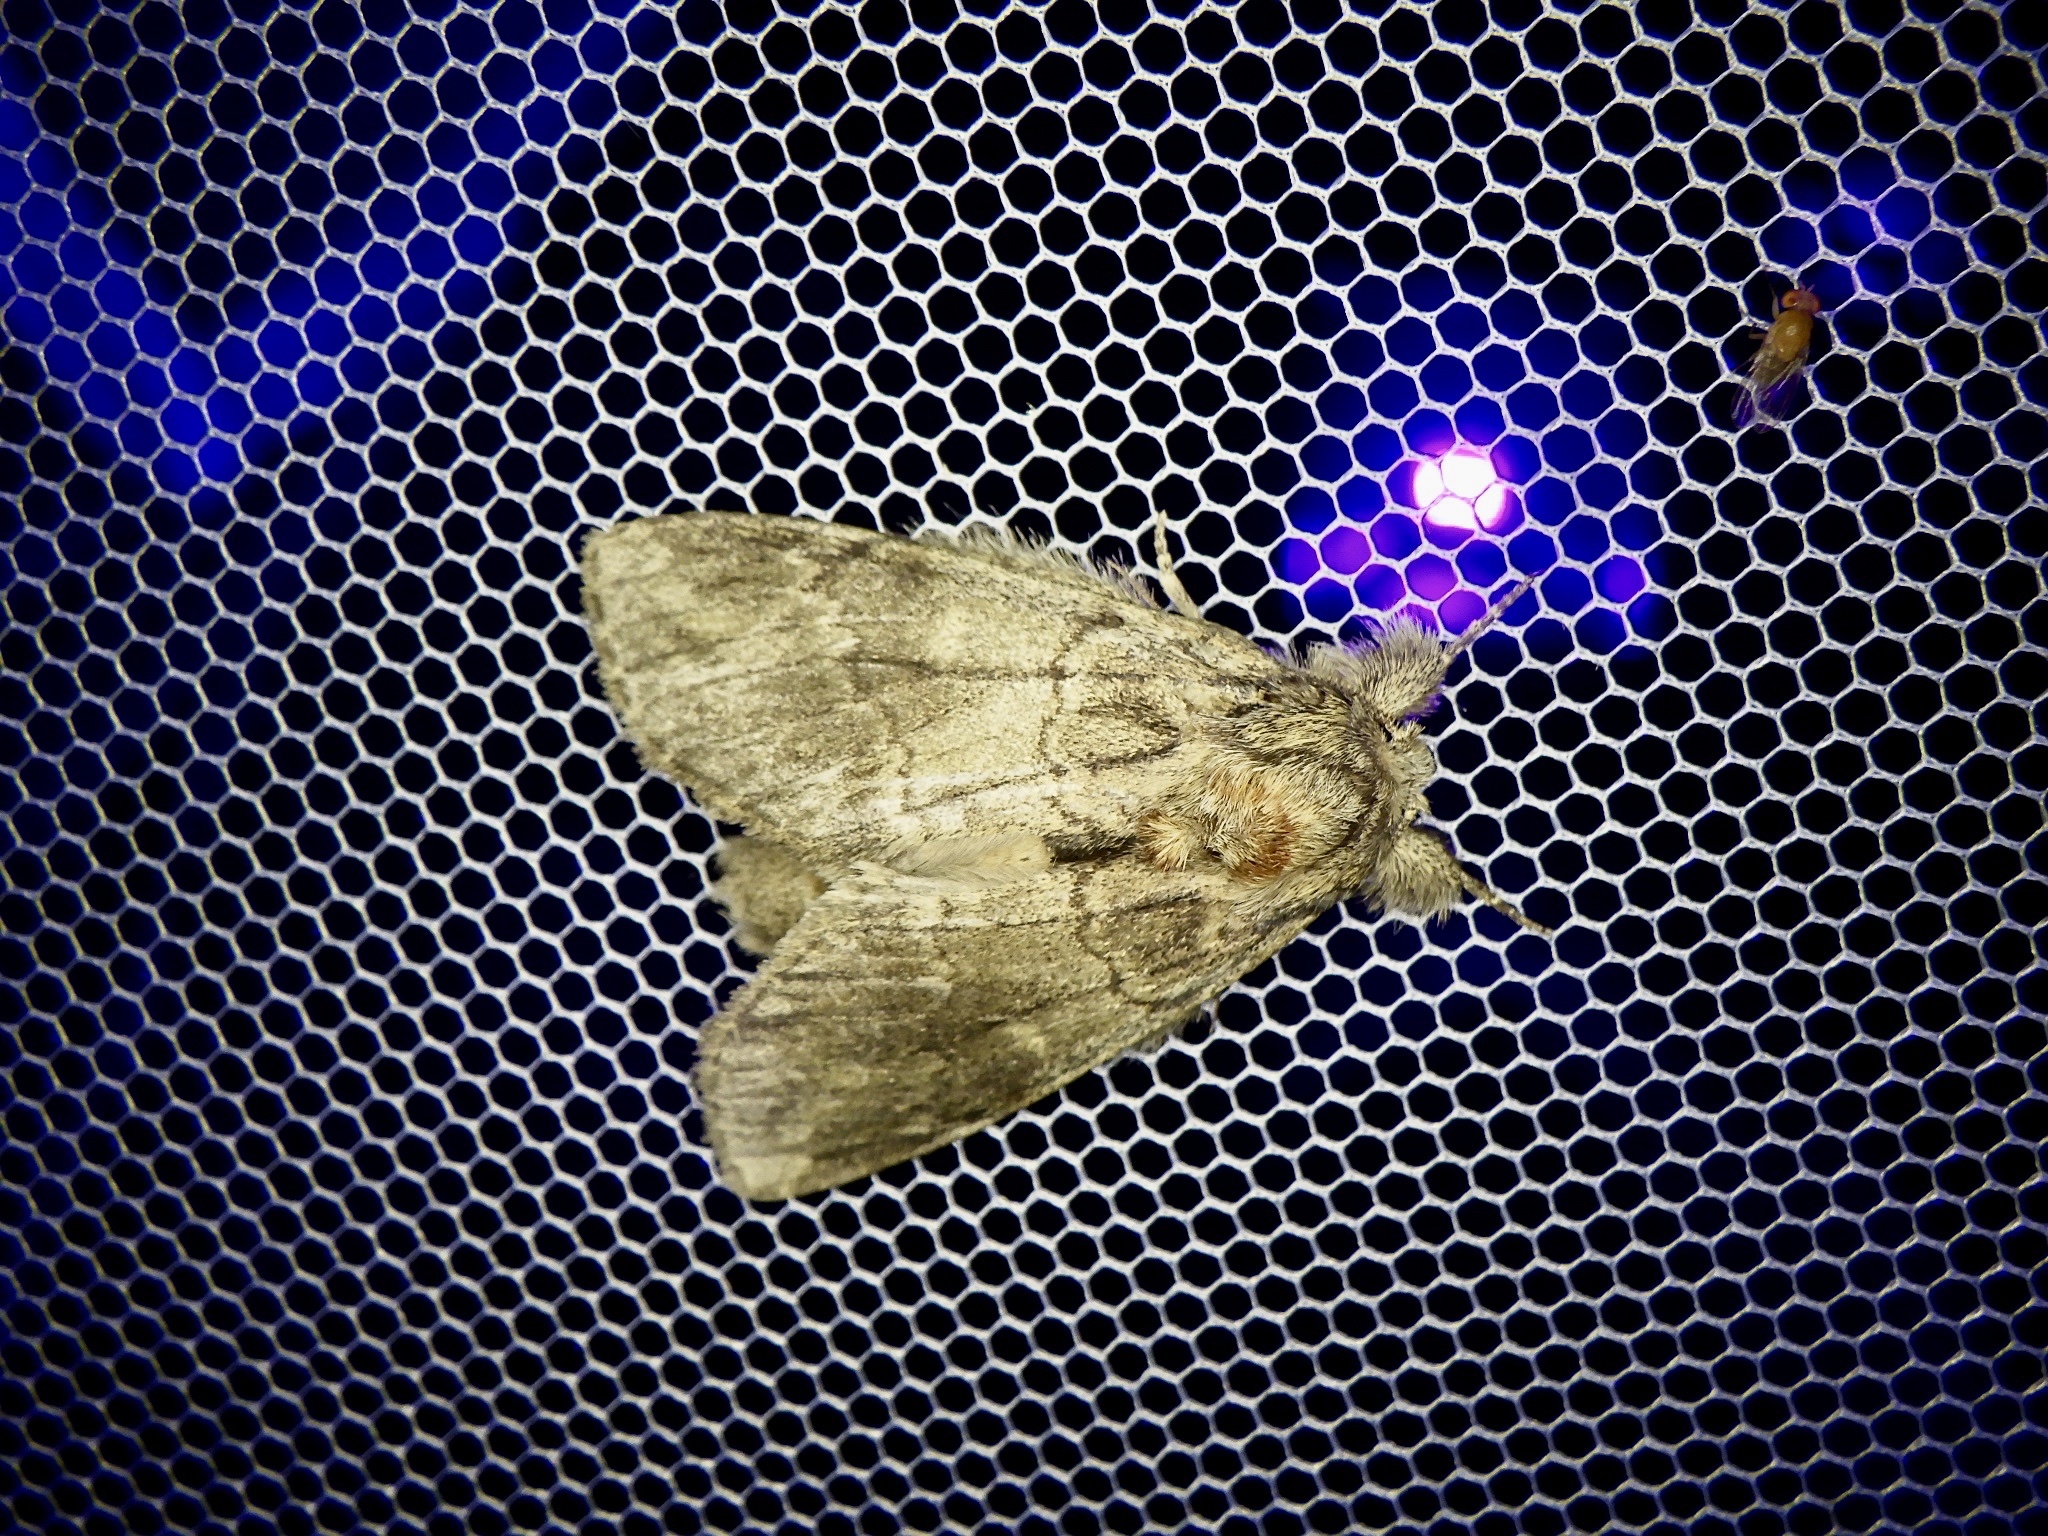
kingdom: Animalia
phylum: Arthropoda
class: Insecta
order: Lepidoptera
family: Notodontidae
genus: Peridea
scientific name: Peridea oberthueri
